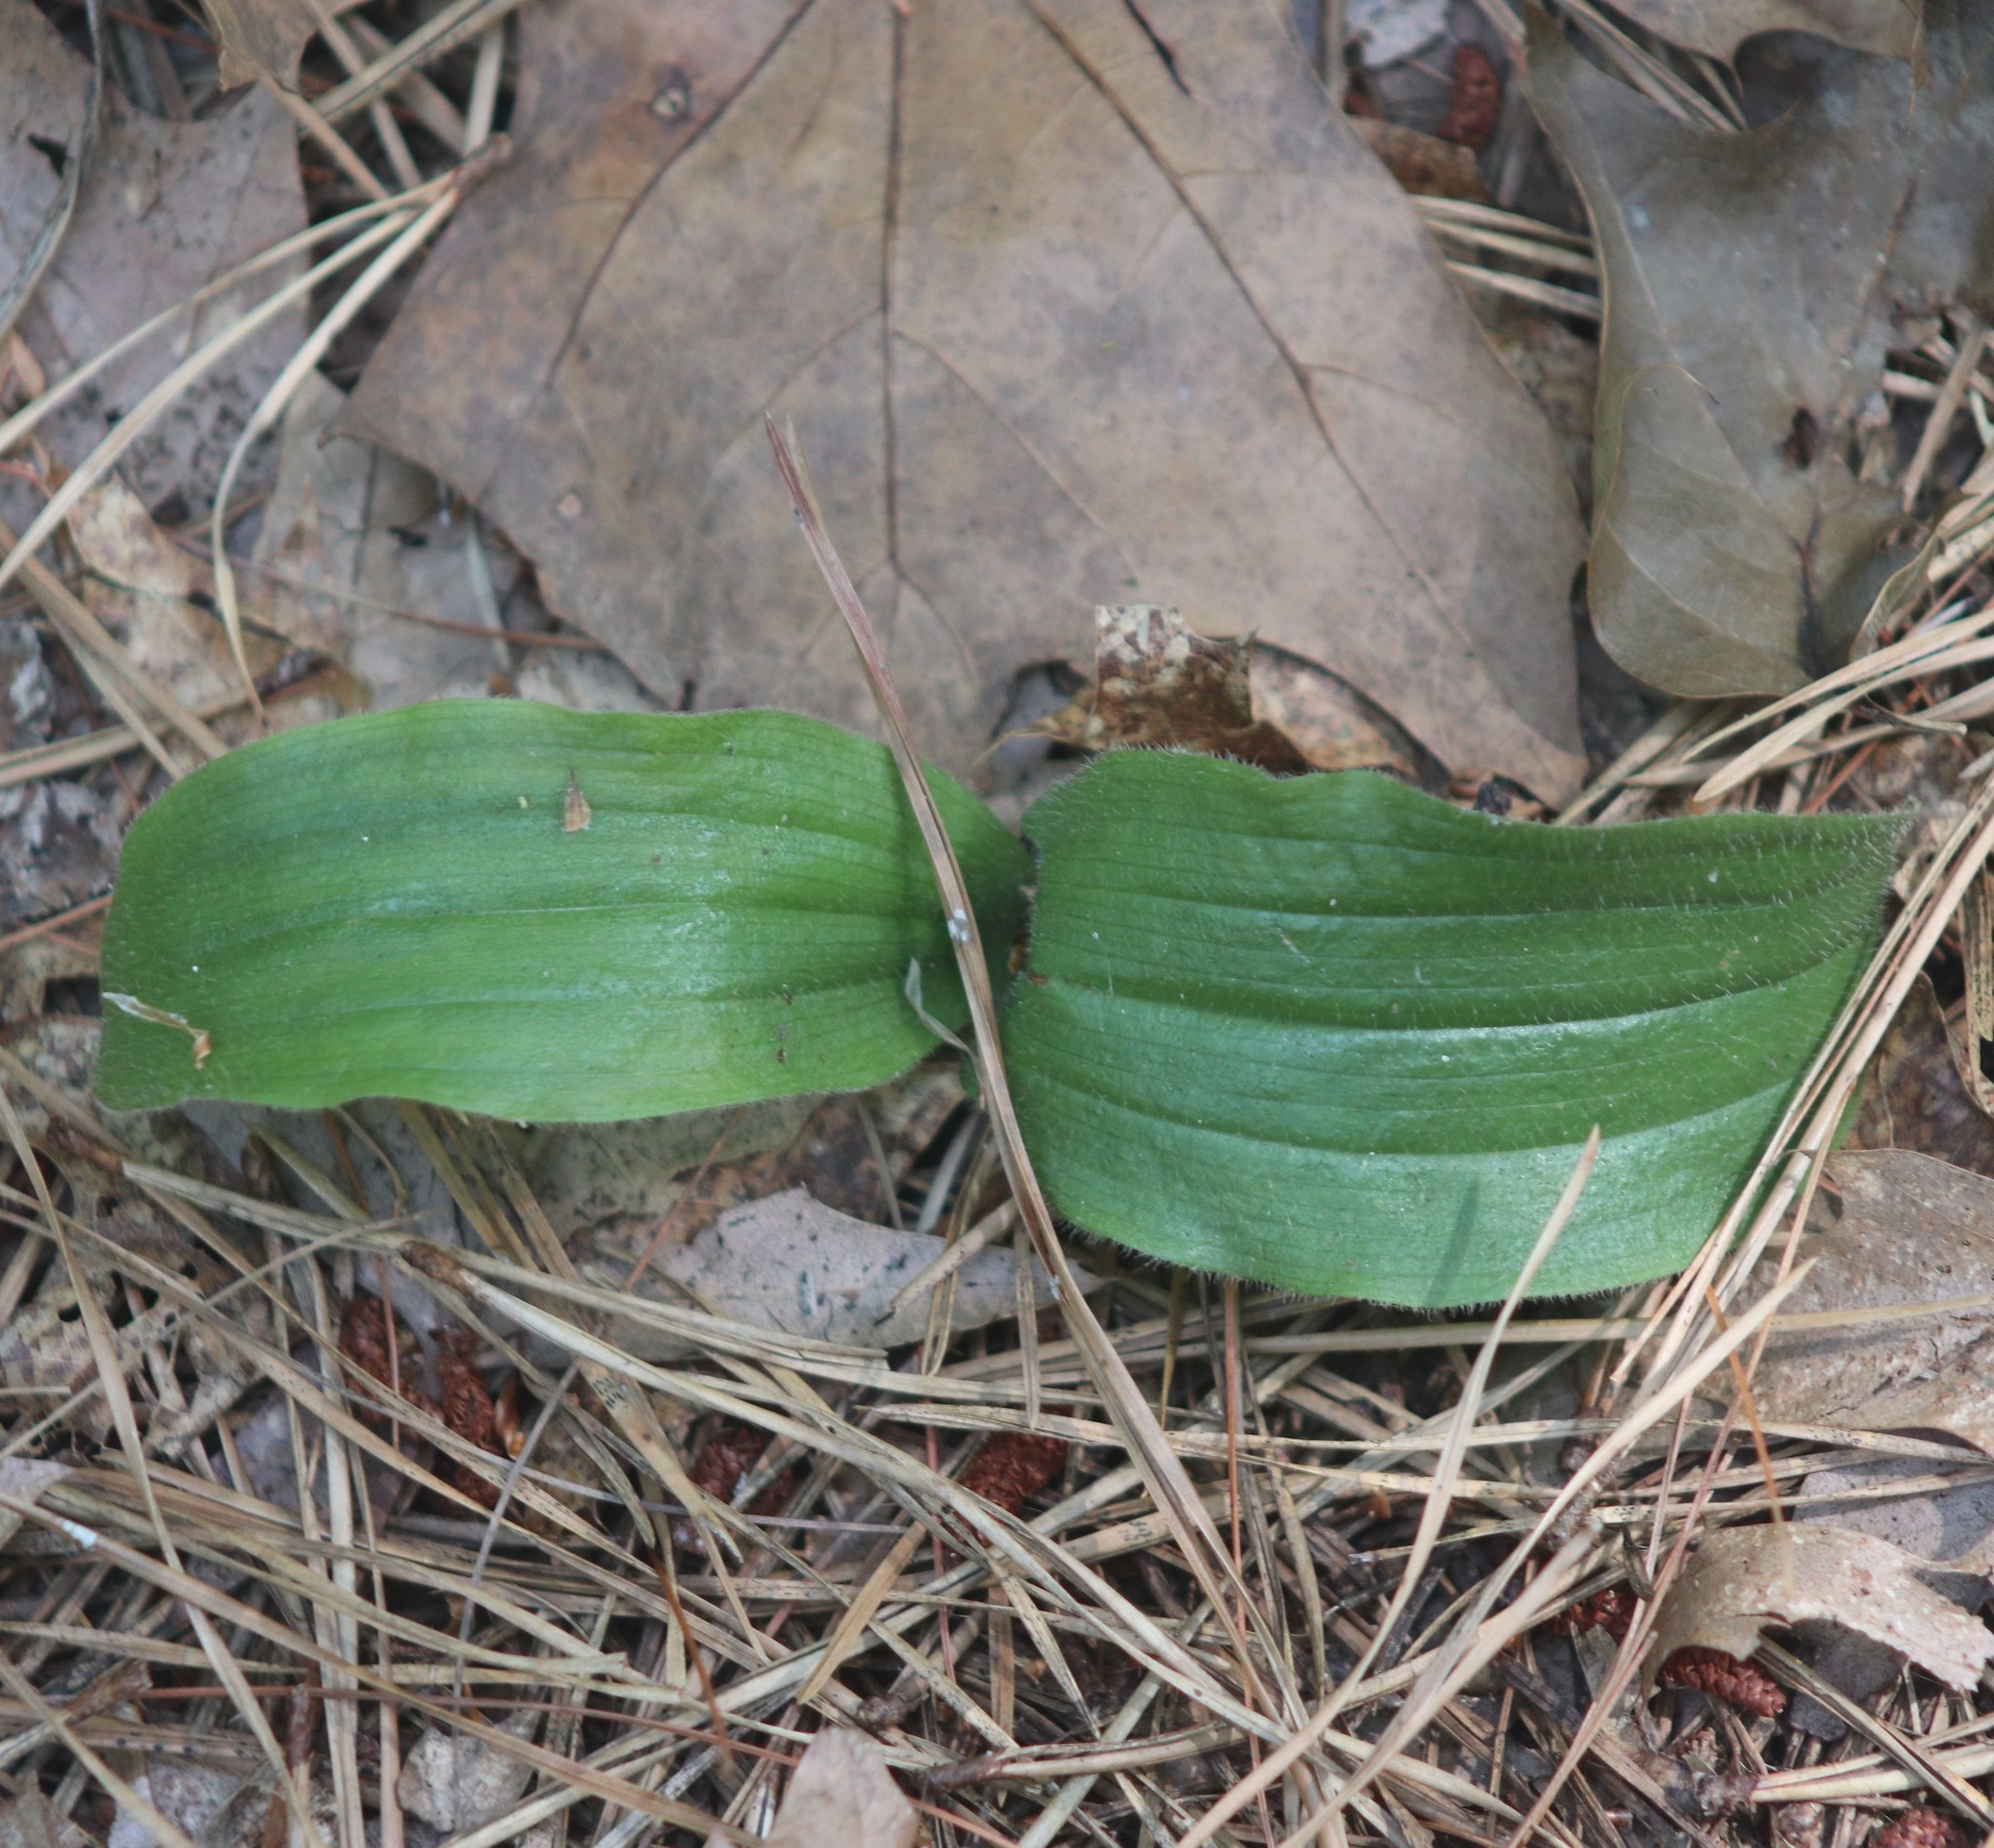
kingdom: Plantae
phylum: Tracheophyta
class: Liliopsida
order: Asparagales
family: Orchidaceae
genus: Cypripedium
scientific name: Cypripedium acaule
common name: Pink lady's-slipper
